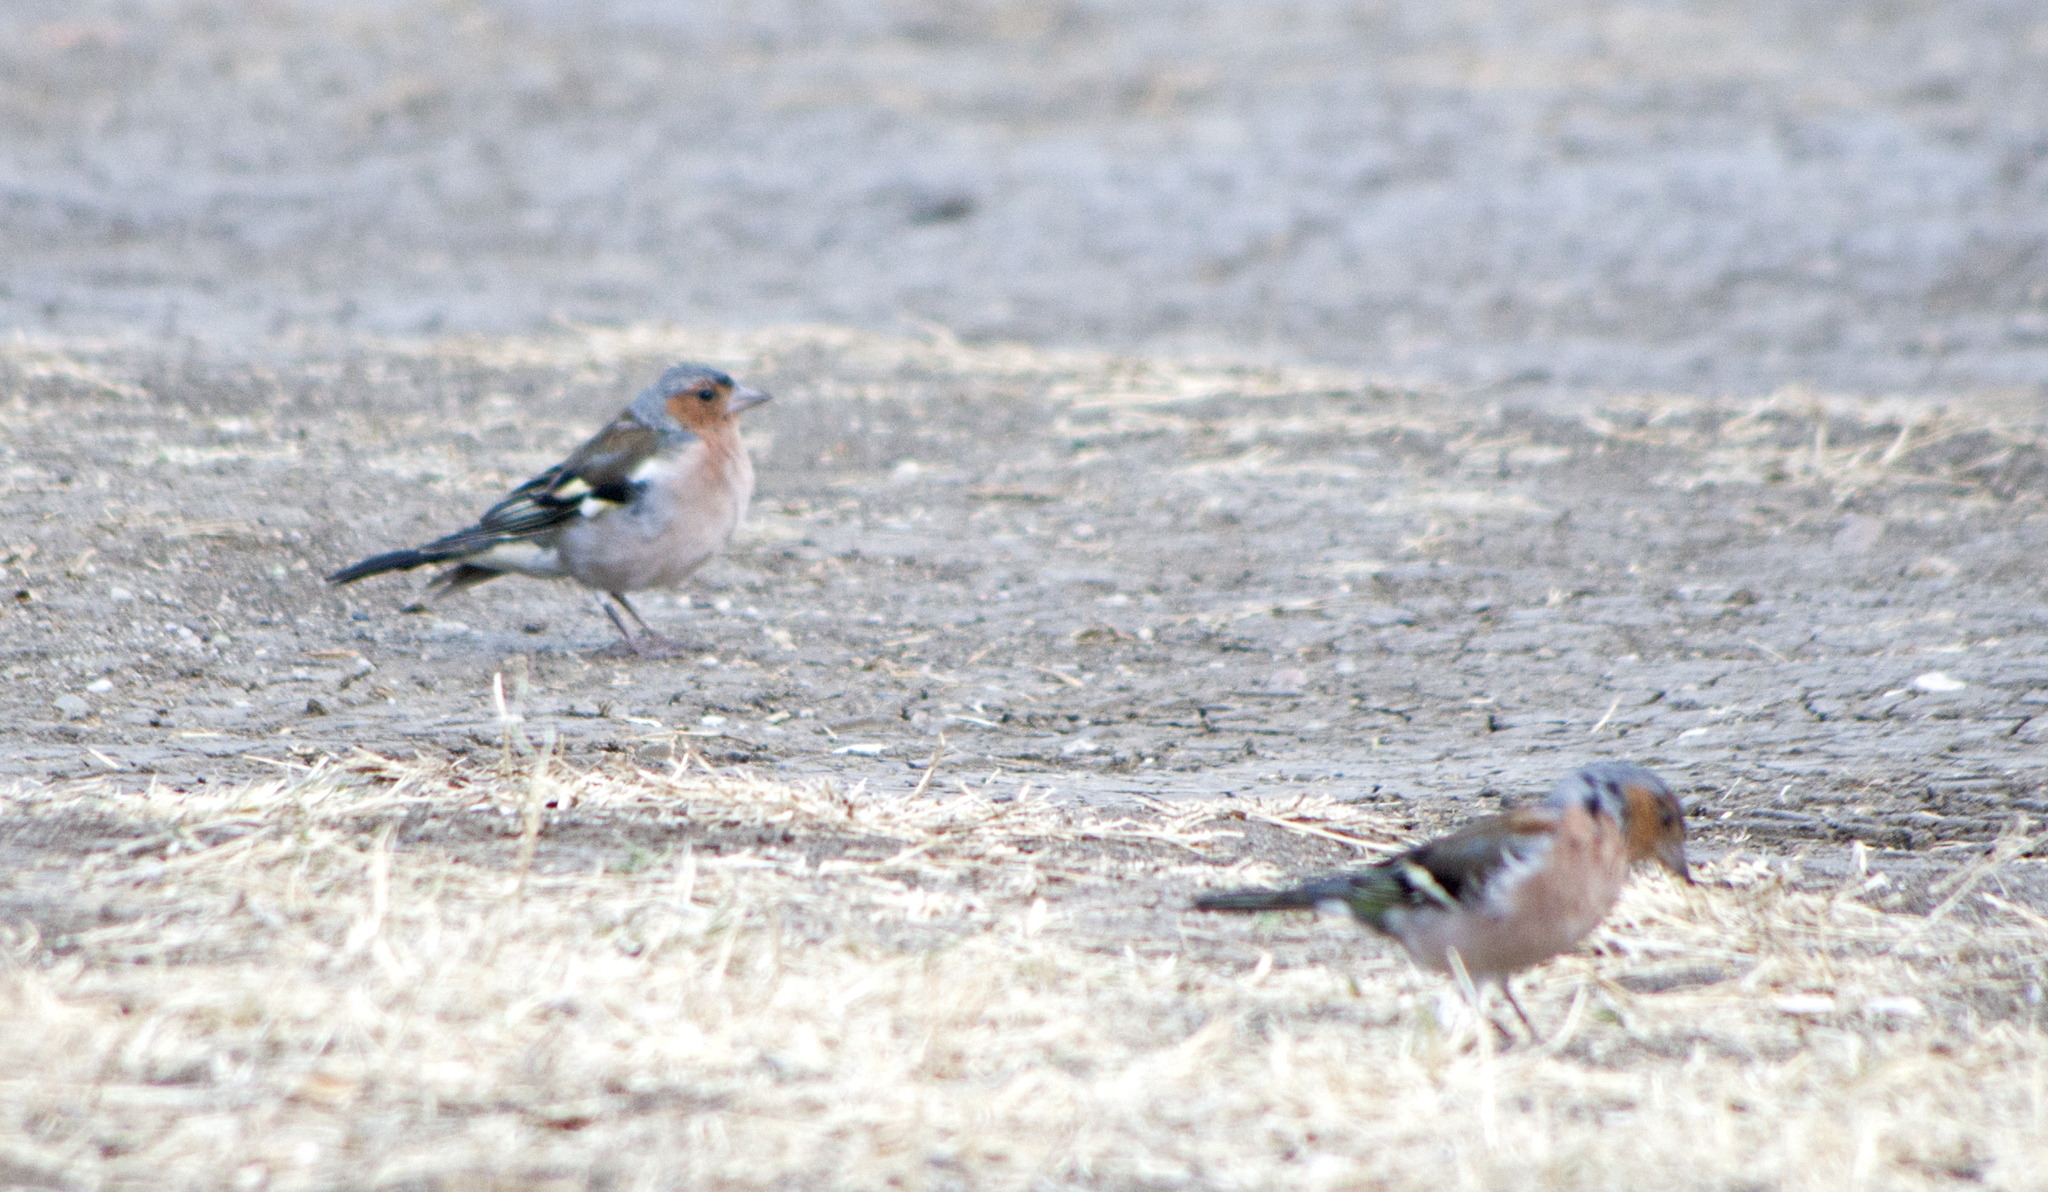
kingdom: Animalia
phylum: Chordata
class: Aves
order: Passeriformes
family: Fringillidae
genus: Fringilla
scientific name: Fringilla coelebs
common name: Common chaffinch
